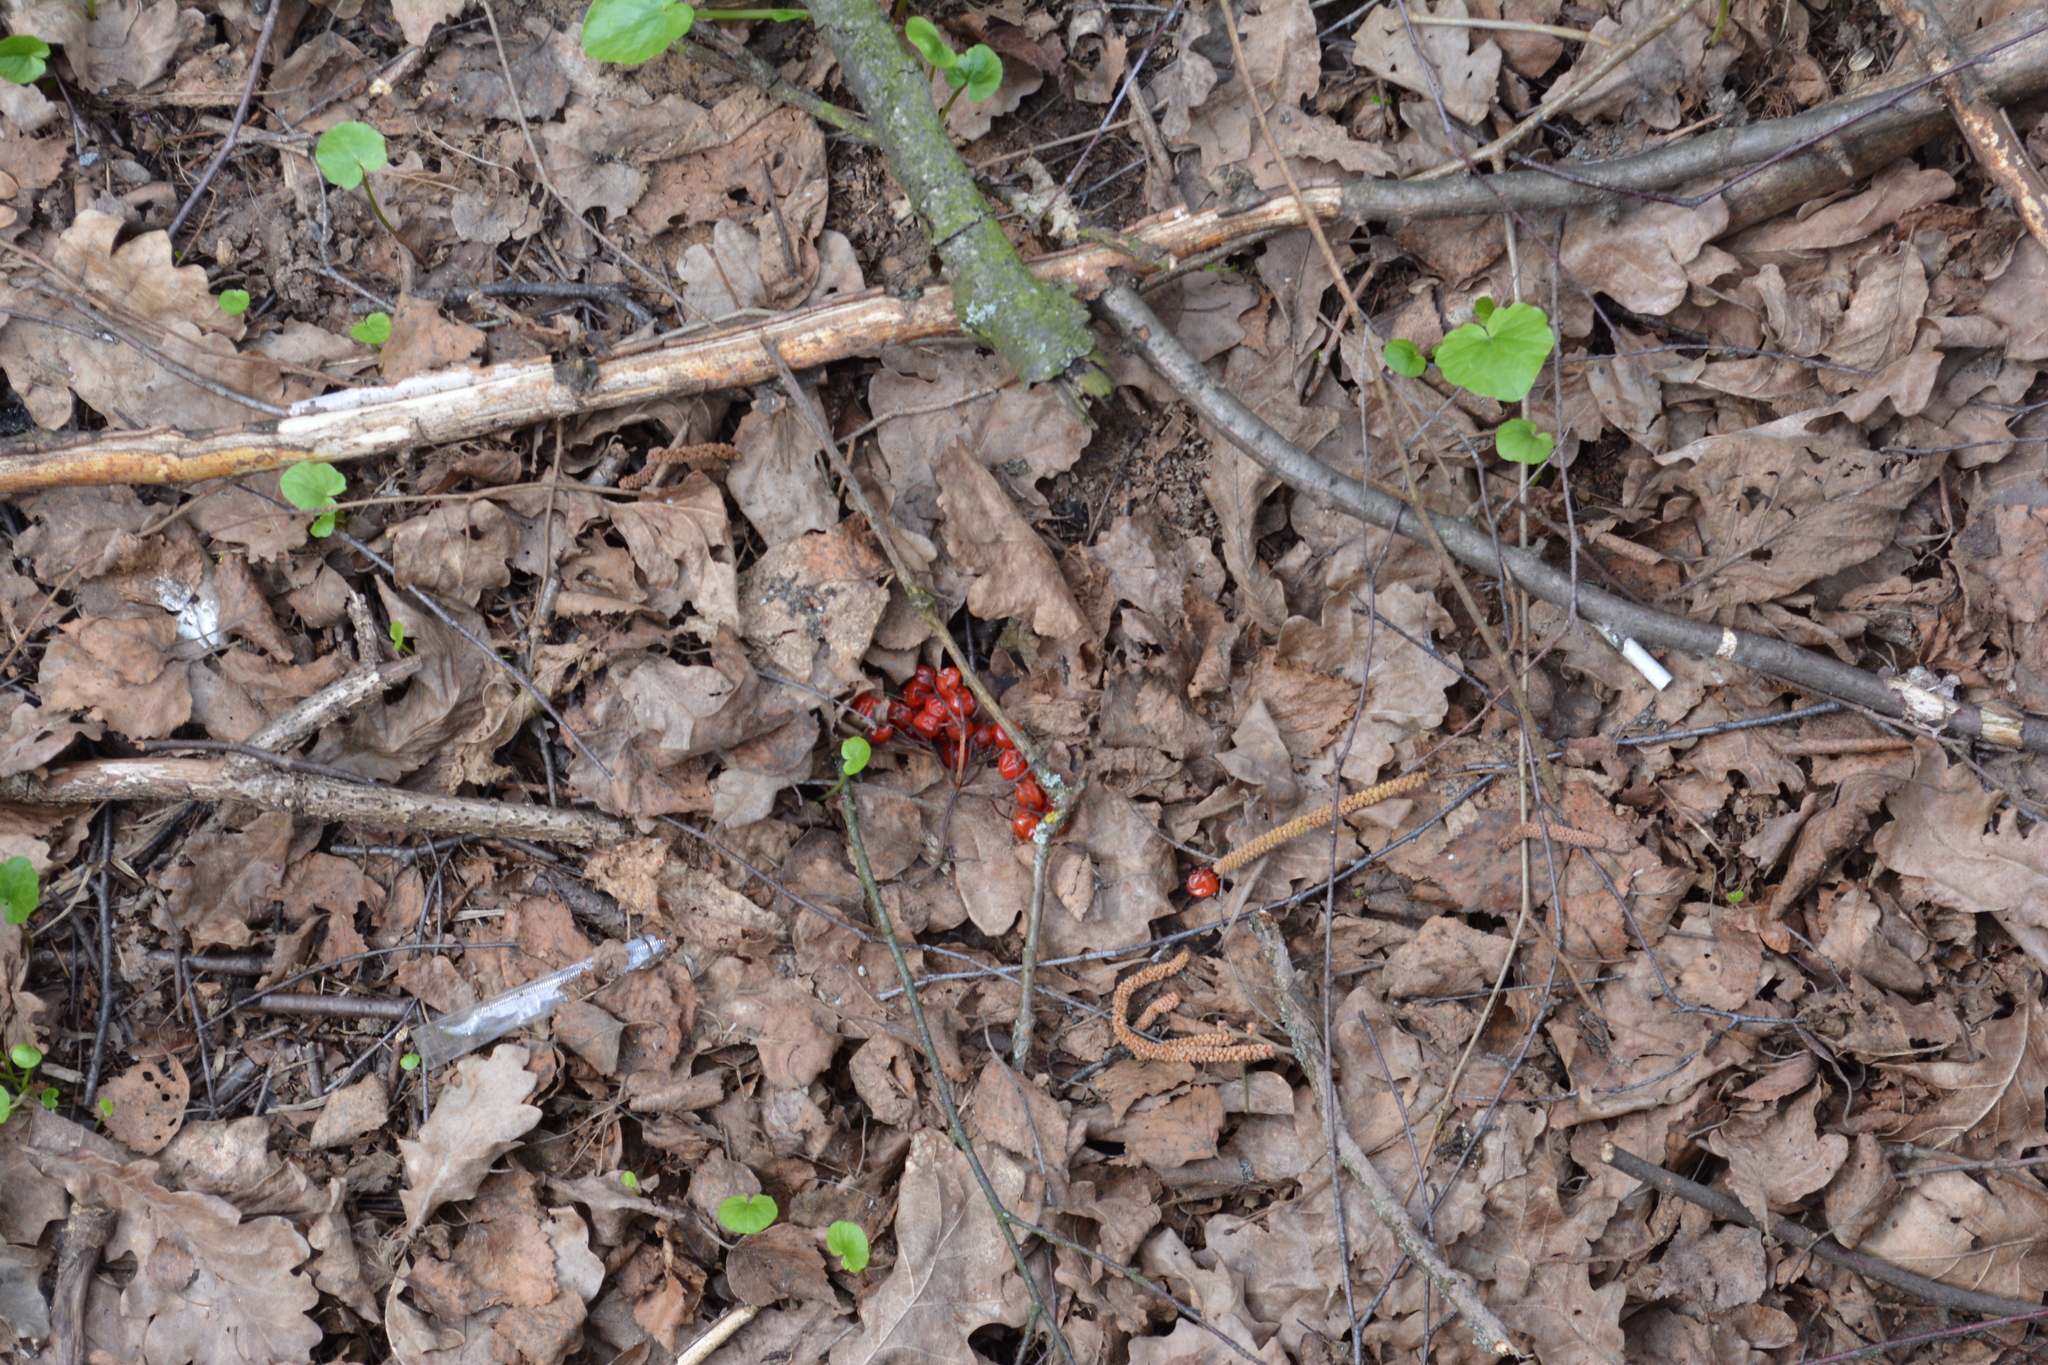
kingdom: Plantae
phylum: Tracheophyta
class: Magnoliopsida
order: Dipsacales
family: Viburnaceae
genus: Viburnum
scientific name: Viburnum opulus
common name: Guelder-rose
